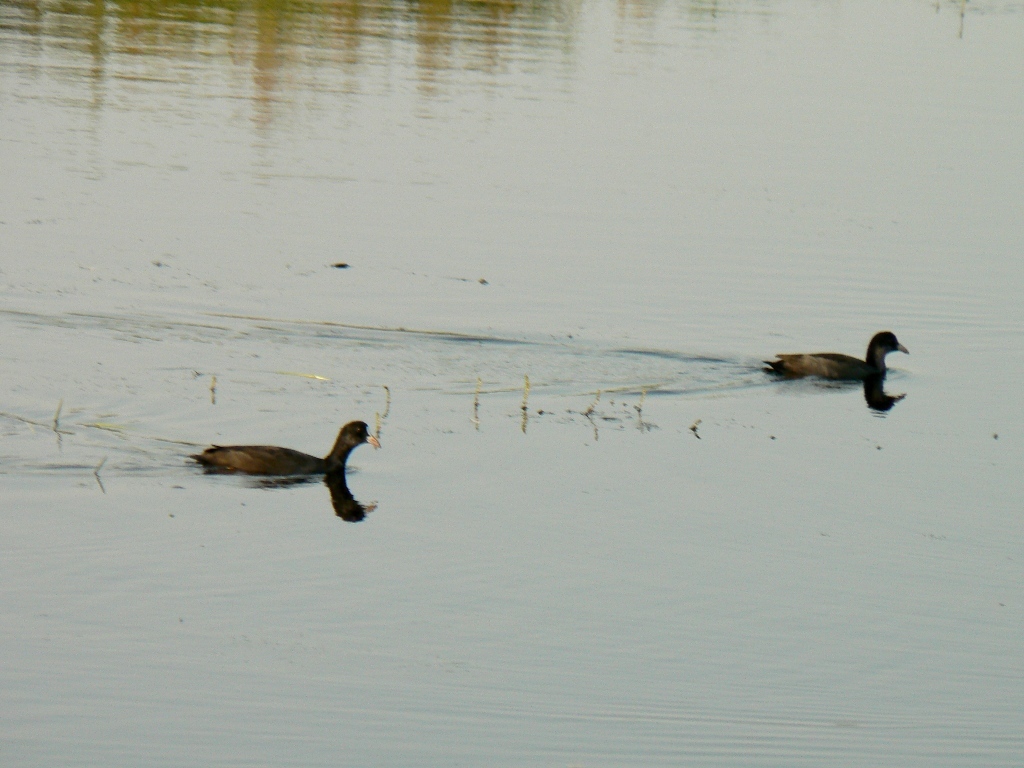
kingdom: Animalia
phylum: Chordata
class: Aves
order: Gruiformes
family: Rallidae
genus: Fulica
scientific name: Fulica atra
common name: Eurasian coot
